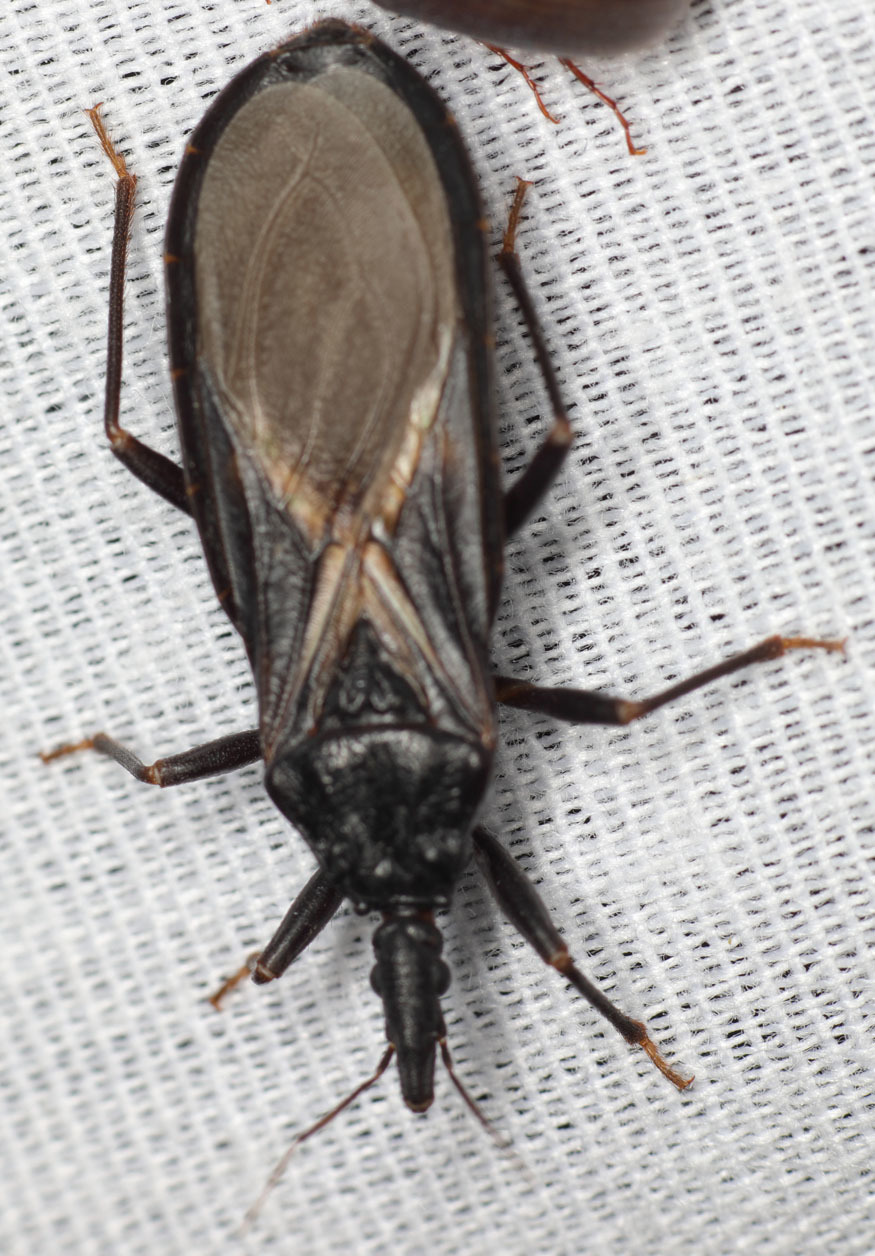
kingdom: Animalia
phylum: Arthropoda
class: Insecta
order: Hemiptera
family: Reduviidae
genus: Triatoma
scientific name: Triatoma protracta
